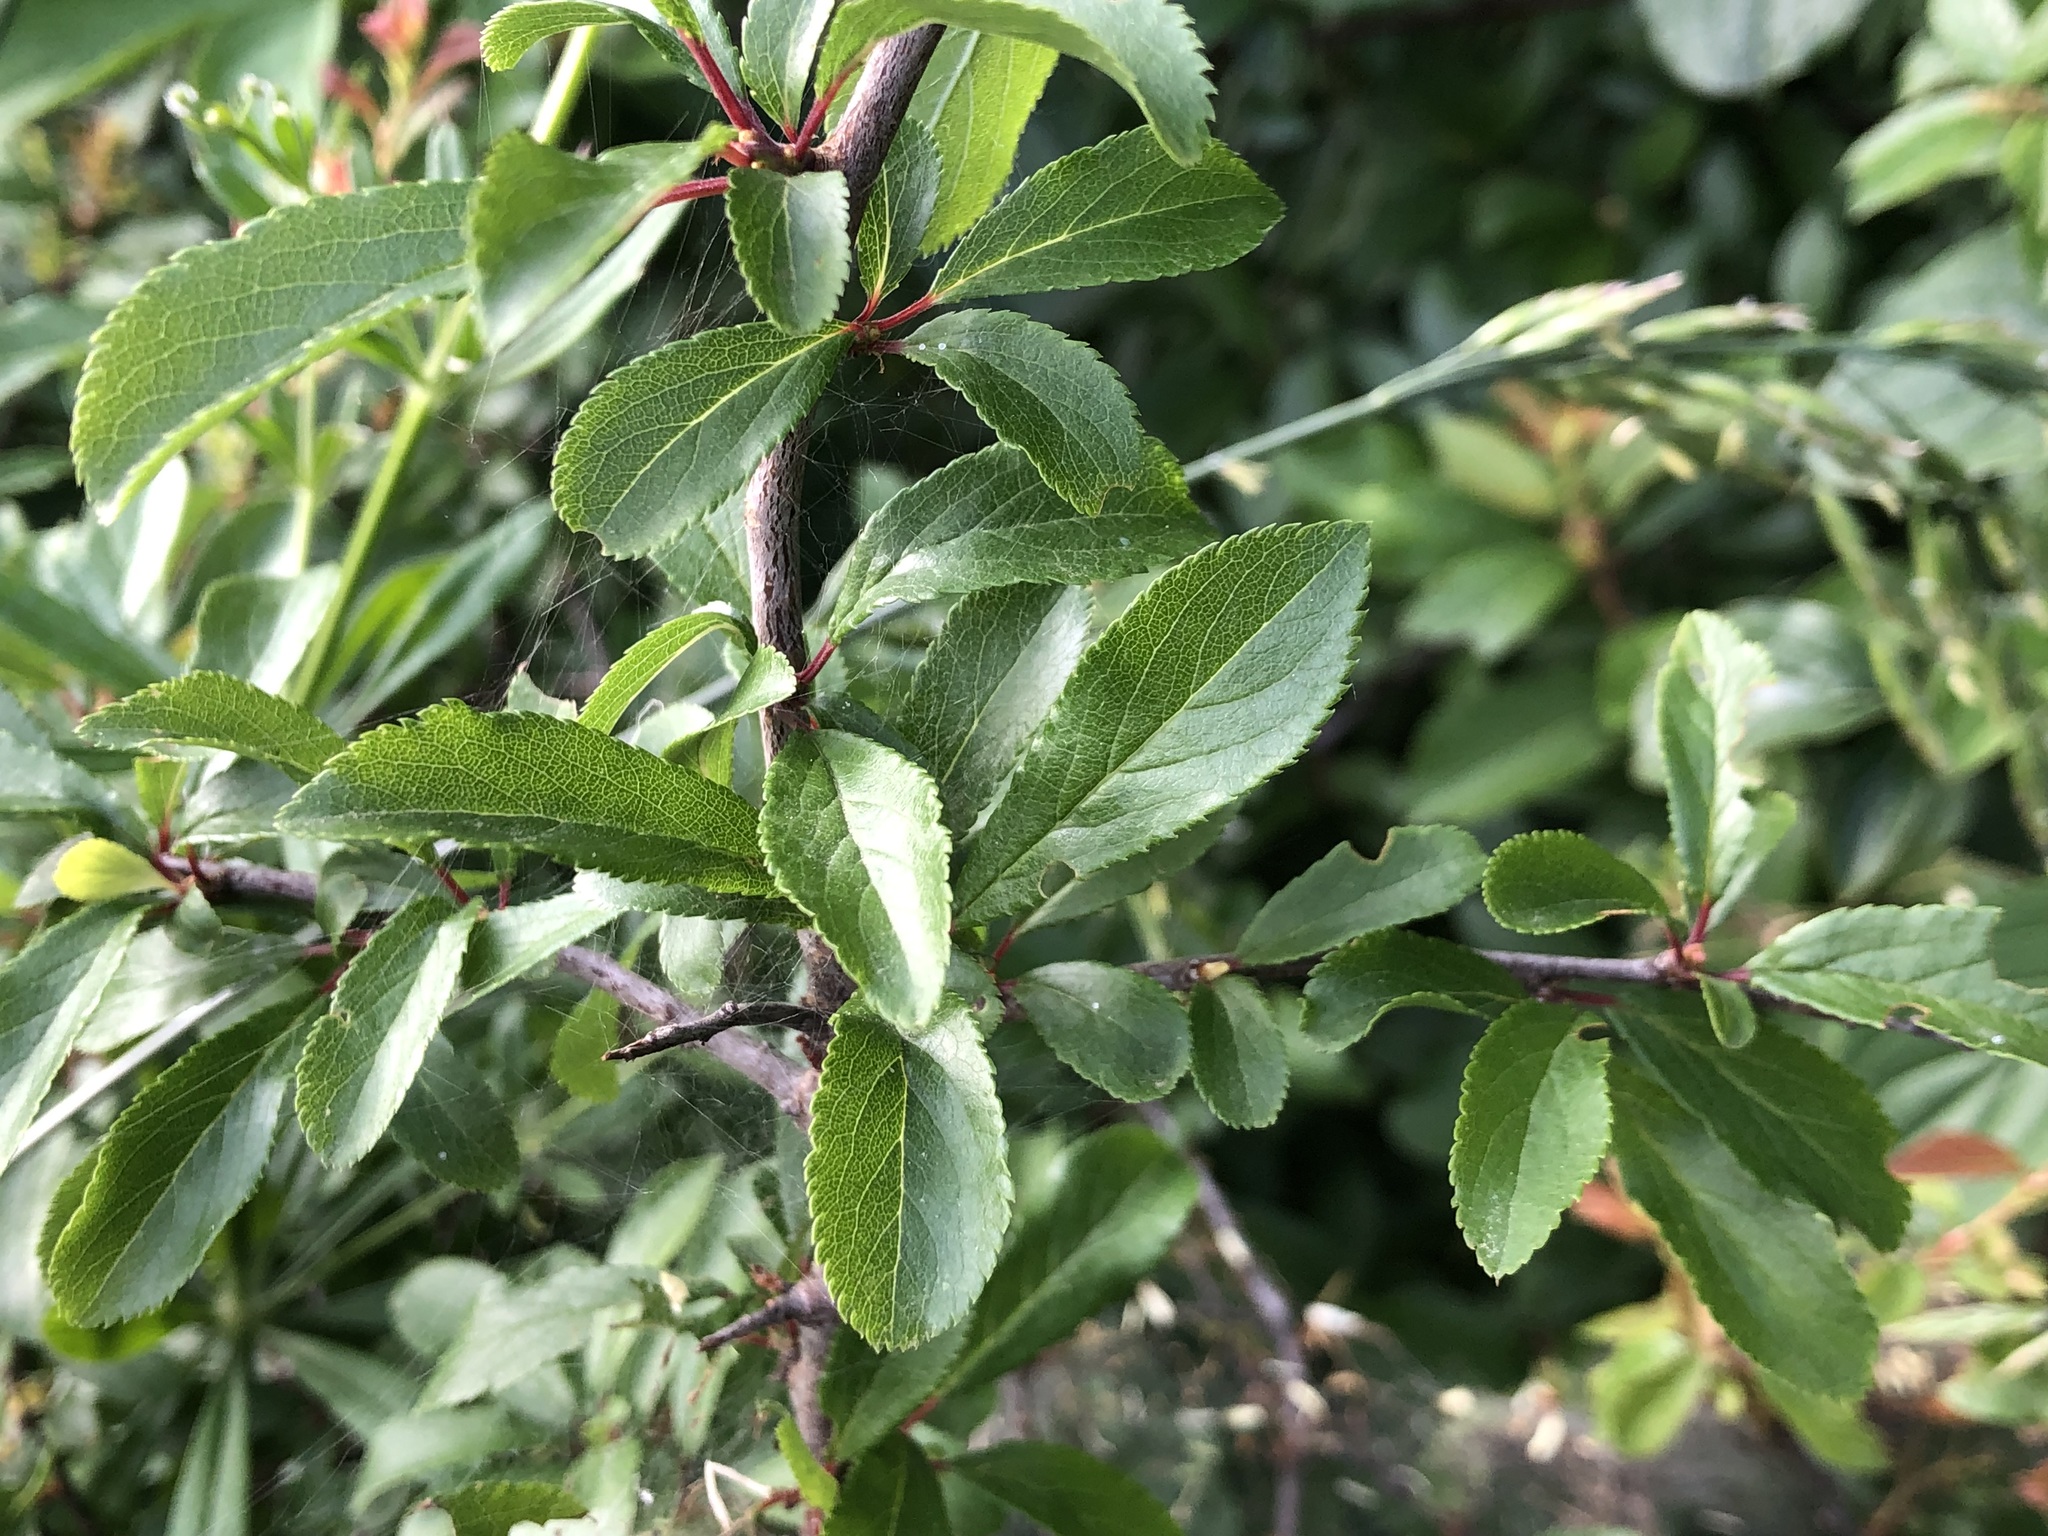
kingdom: Plantae
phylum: Tracheophyta
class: Magnoliopsida
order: Rosales
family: Rosaceae
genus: Prunus
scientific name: Prunus spinosa
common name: Blackthorn
